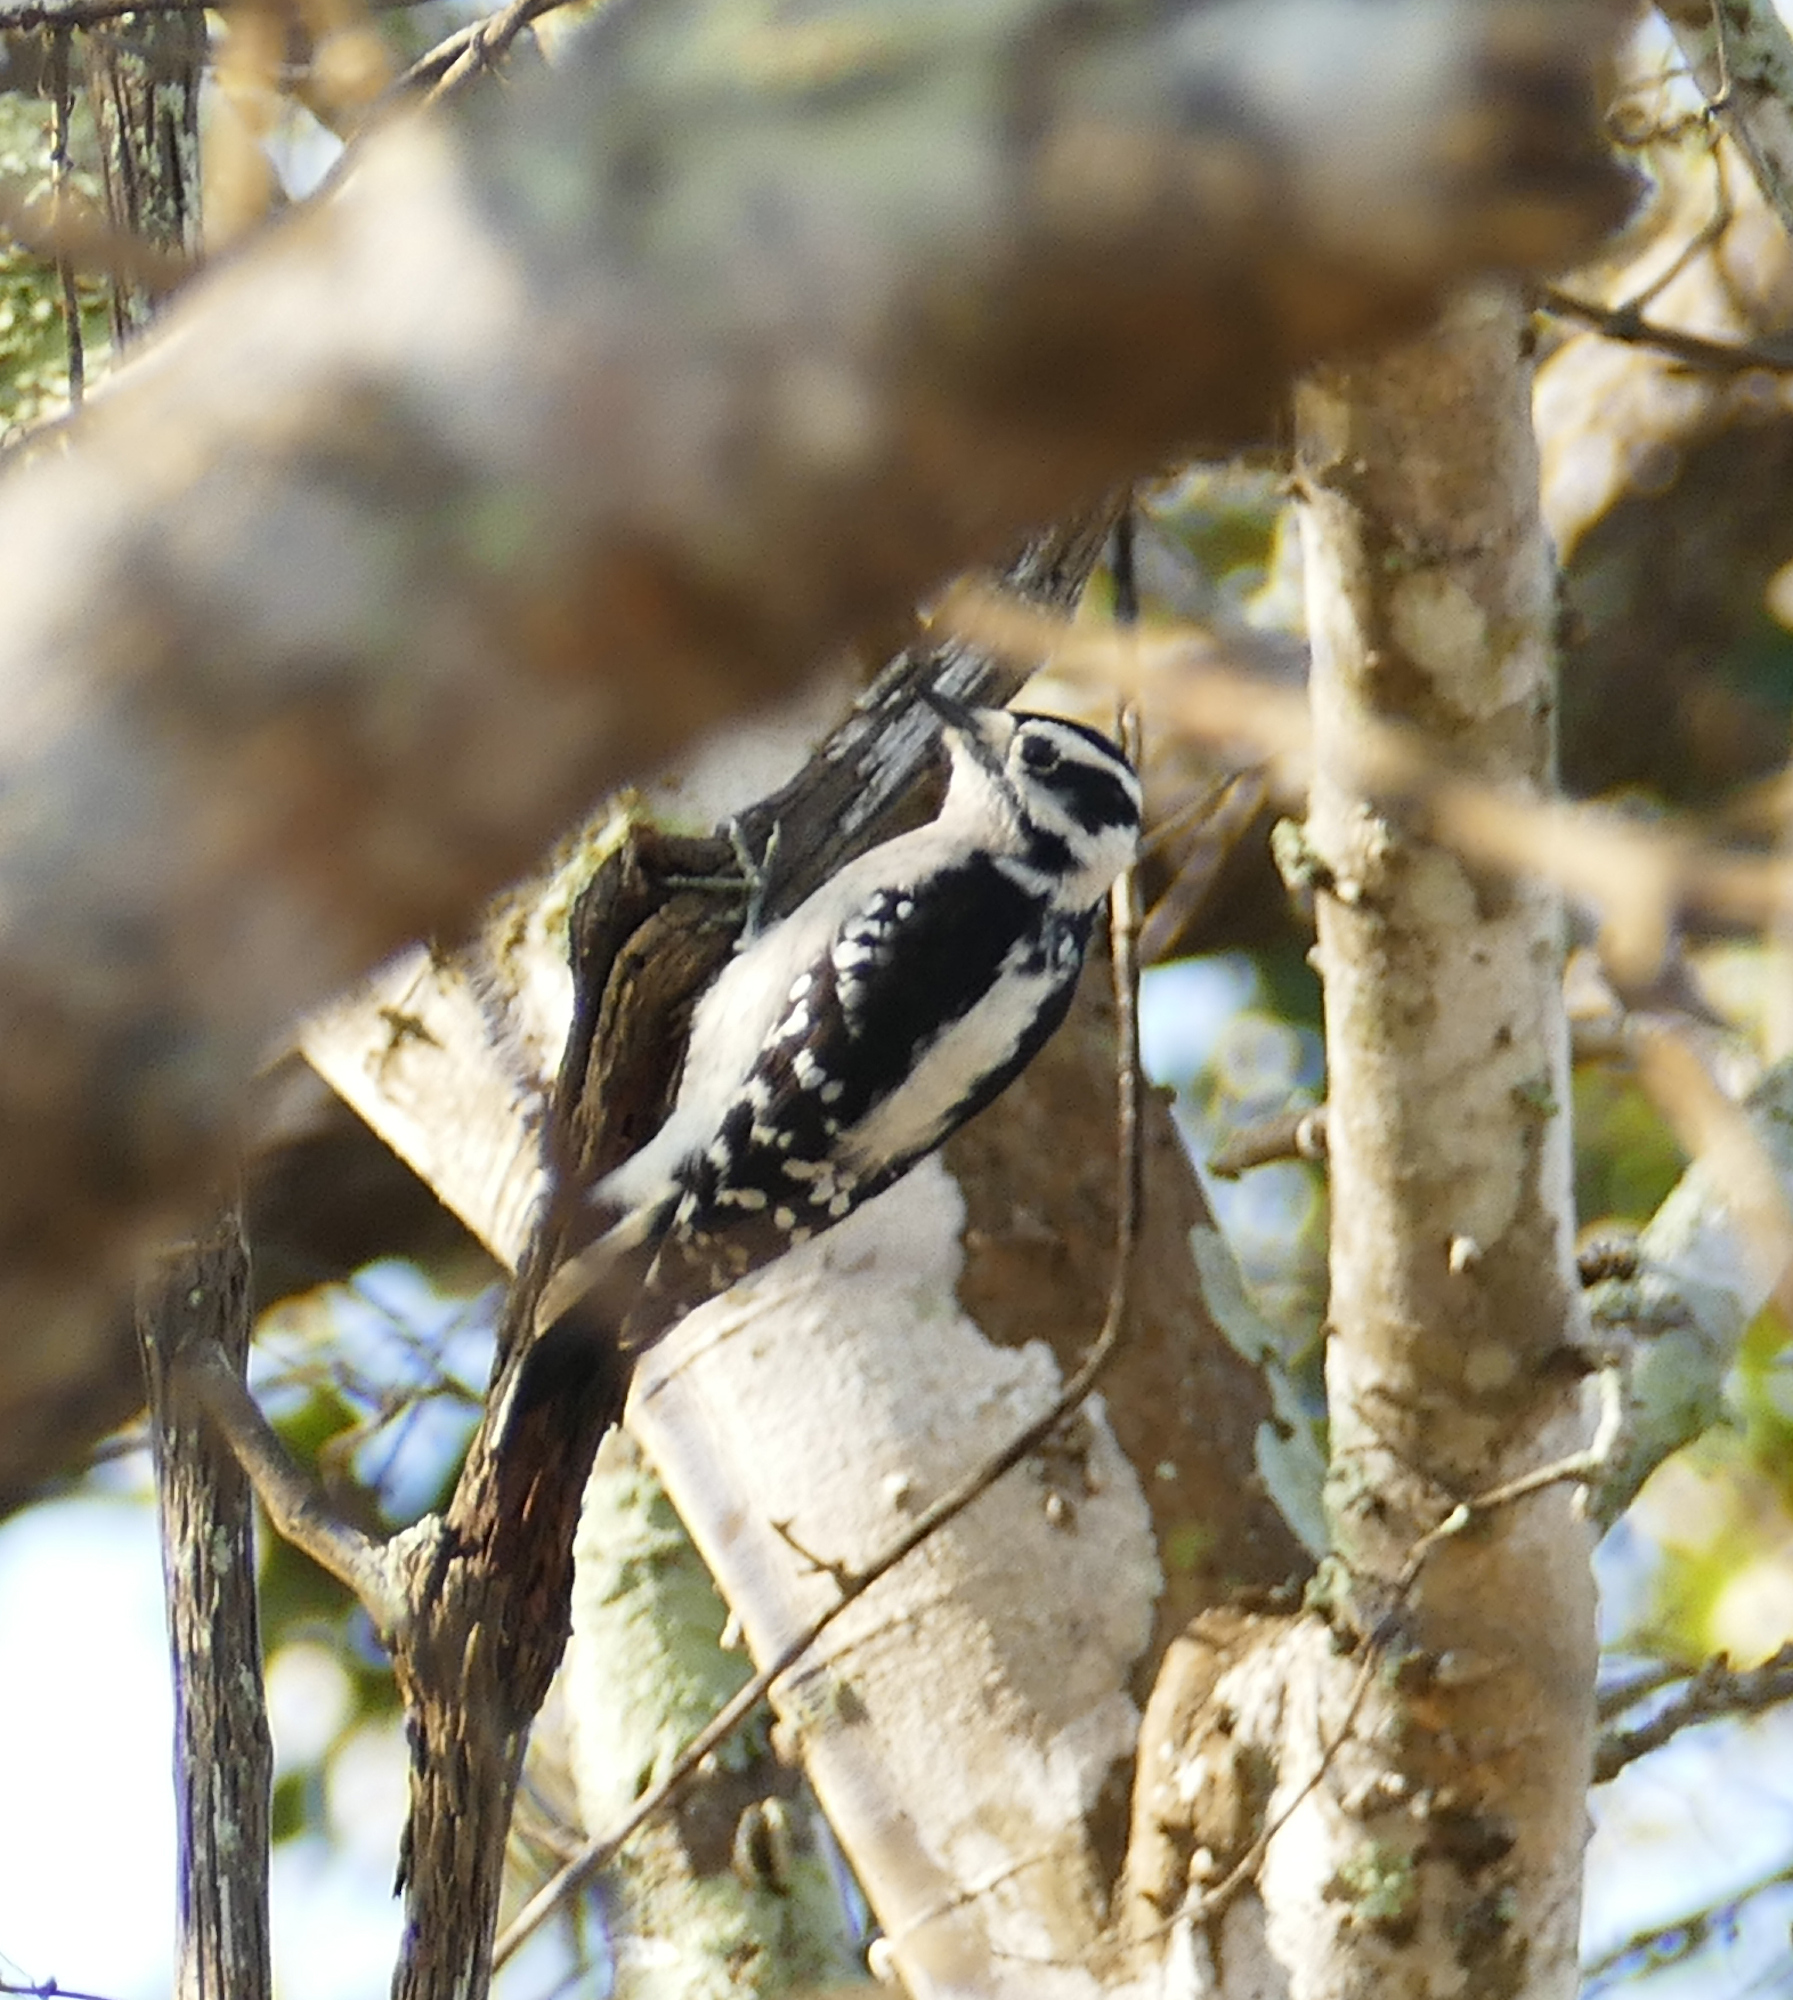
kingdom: Animalia
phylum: Chordata
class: Aves
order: Piciformes
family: Picidae
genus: Dryobates
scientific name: Dryobates pubescens
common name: Downy woodpecker
